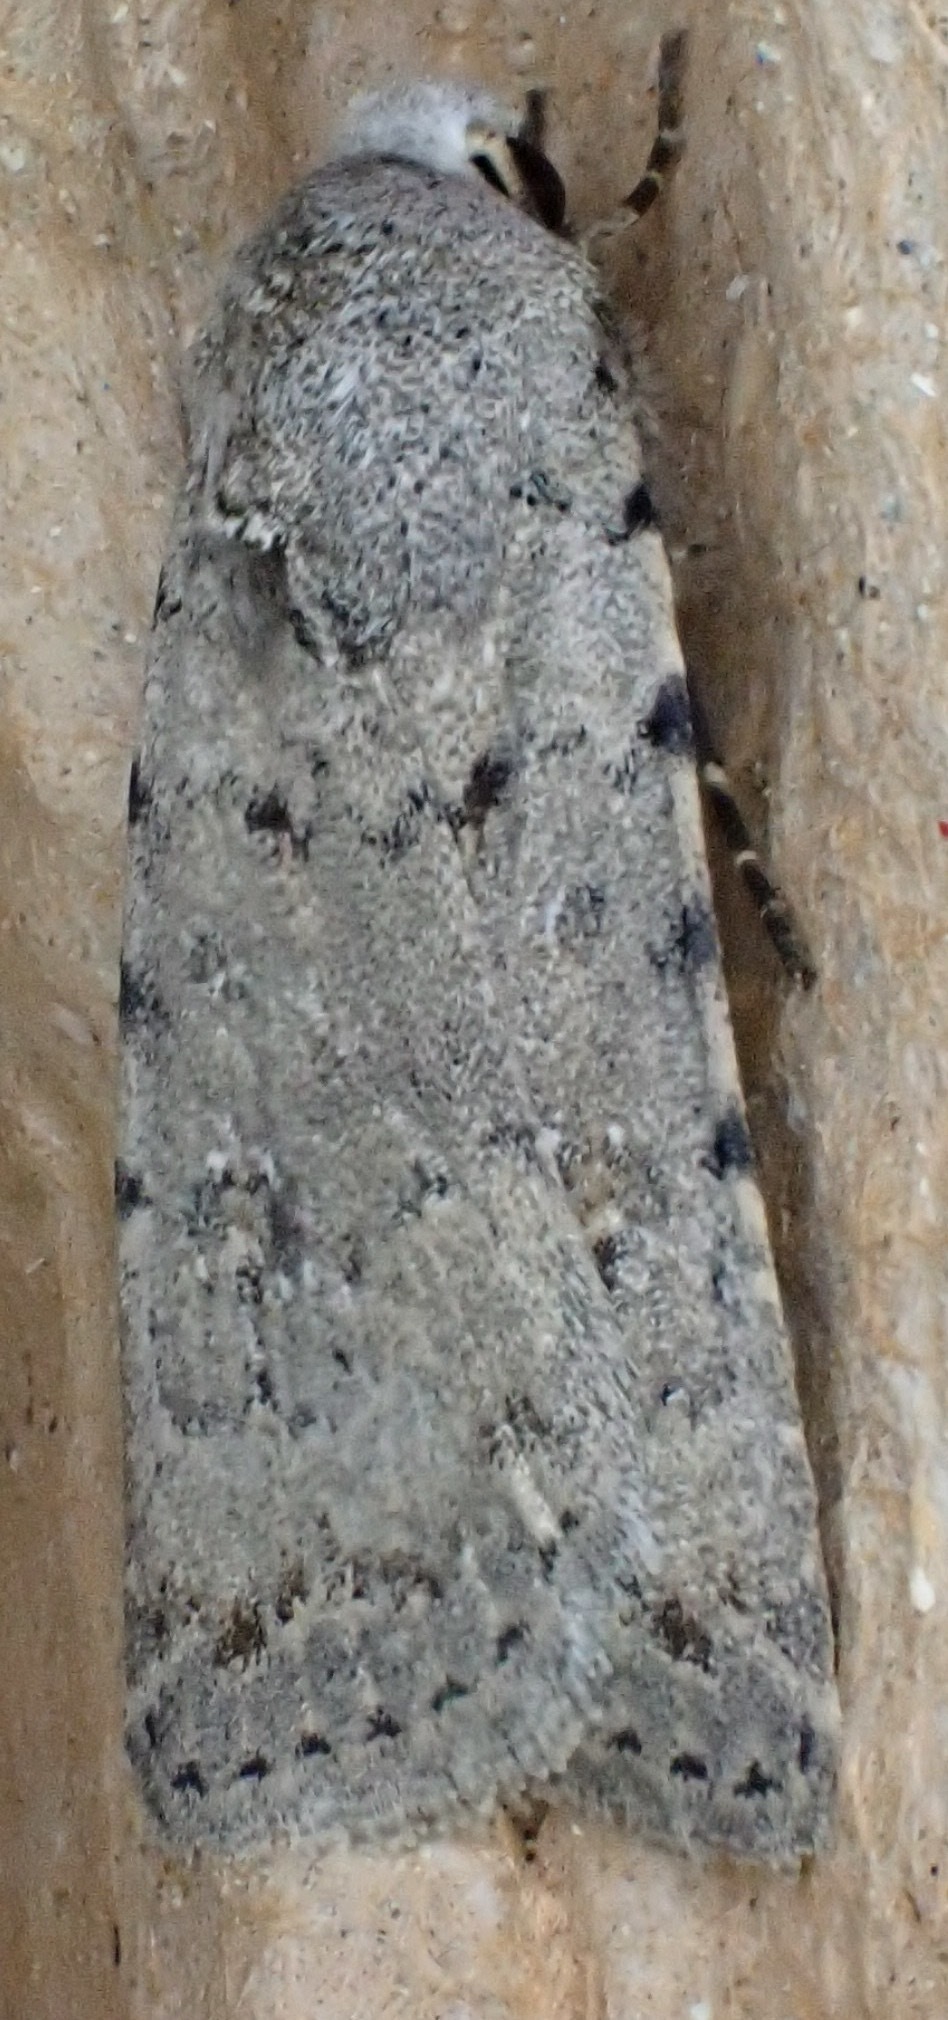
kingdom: Animalia
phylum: Arthropoda
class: Insecta
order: Lepidoptera
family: Noctuidae
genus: Caradrina
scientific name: Caradrina clavipalpis
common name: Pale mottled willow
